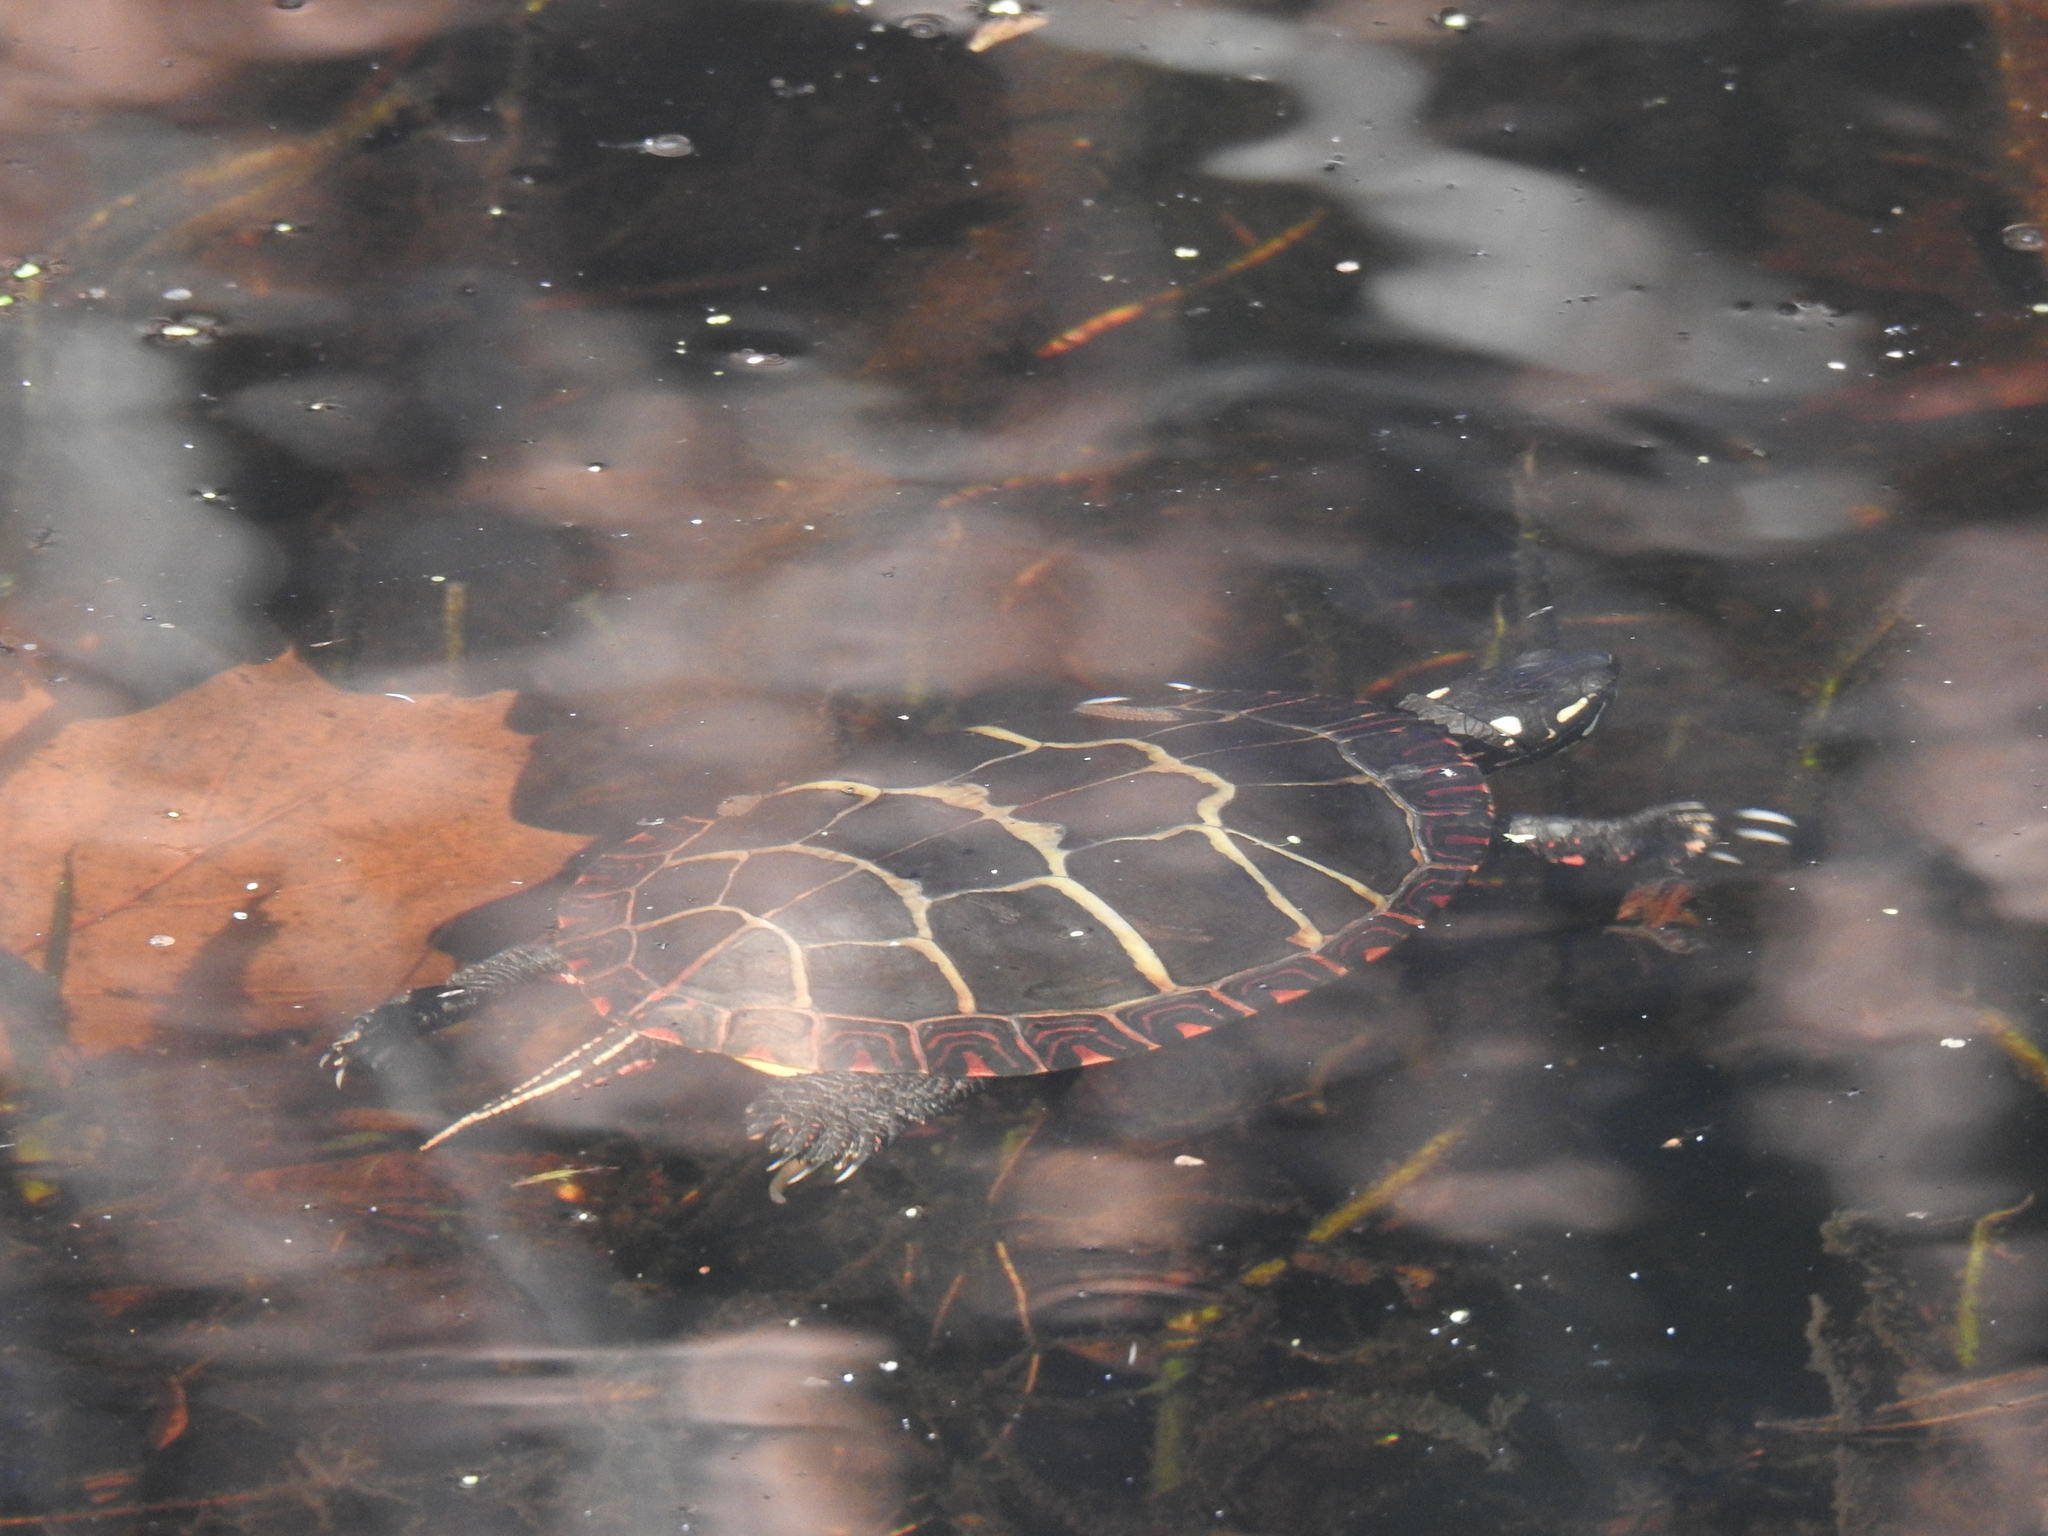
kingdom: Animalia
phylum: Chordata
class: Testudines
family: Emydidae
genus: Chrysemys
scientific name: Chrysemys picta
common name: Painted turtle
